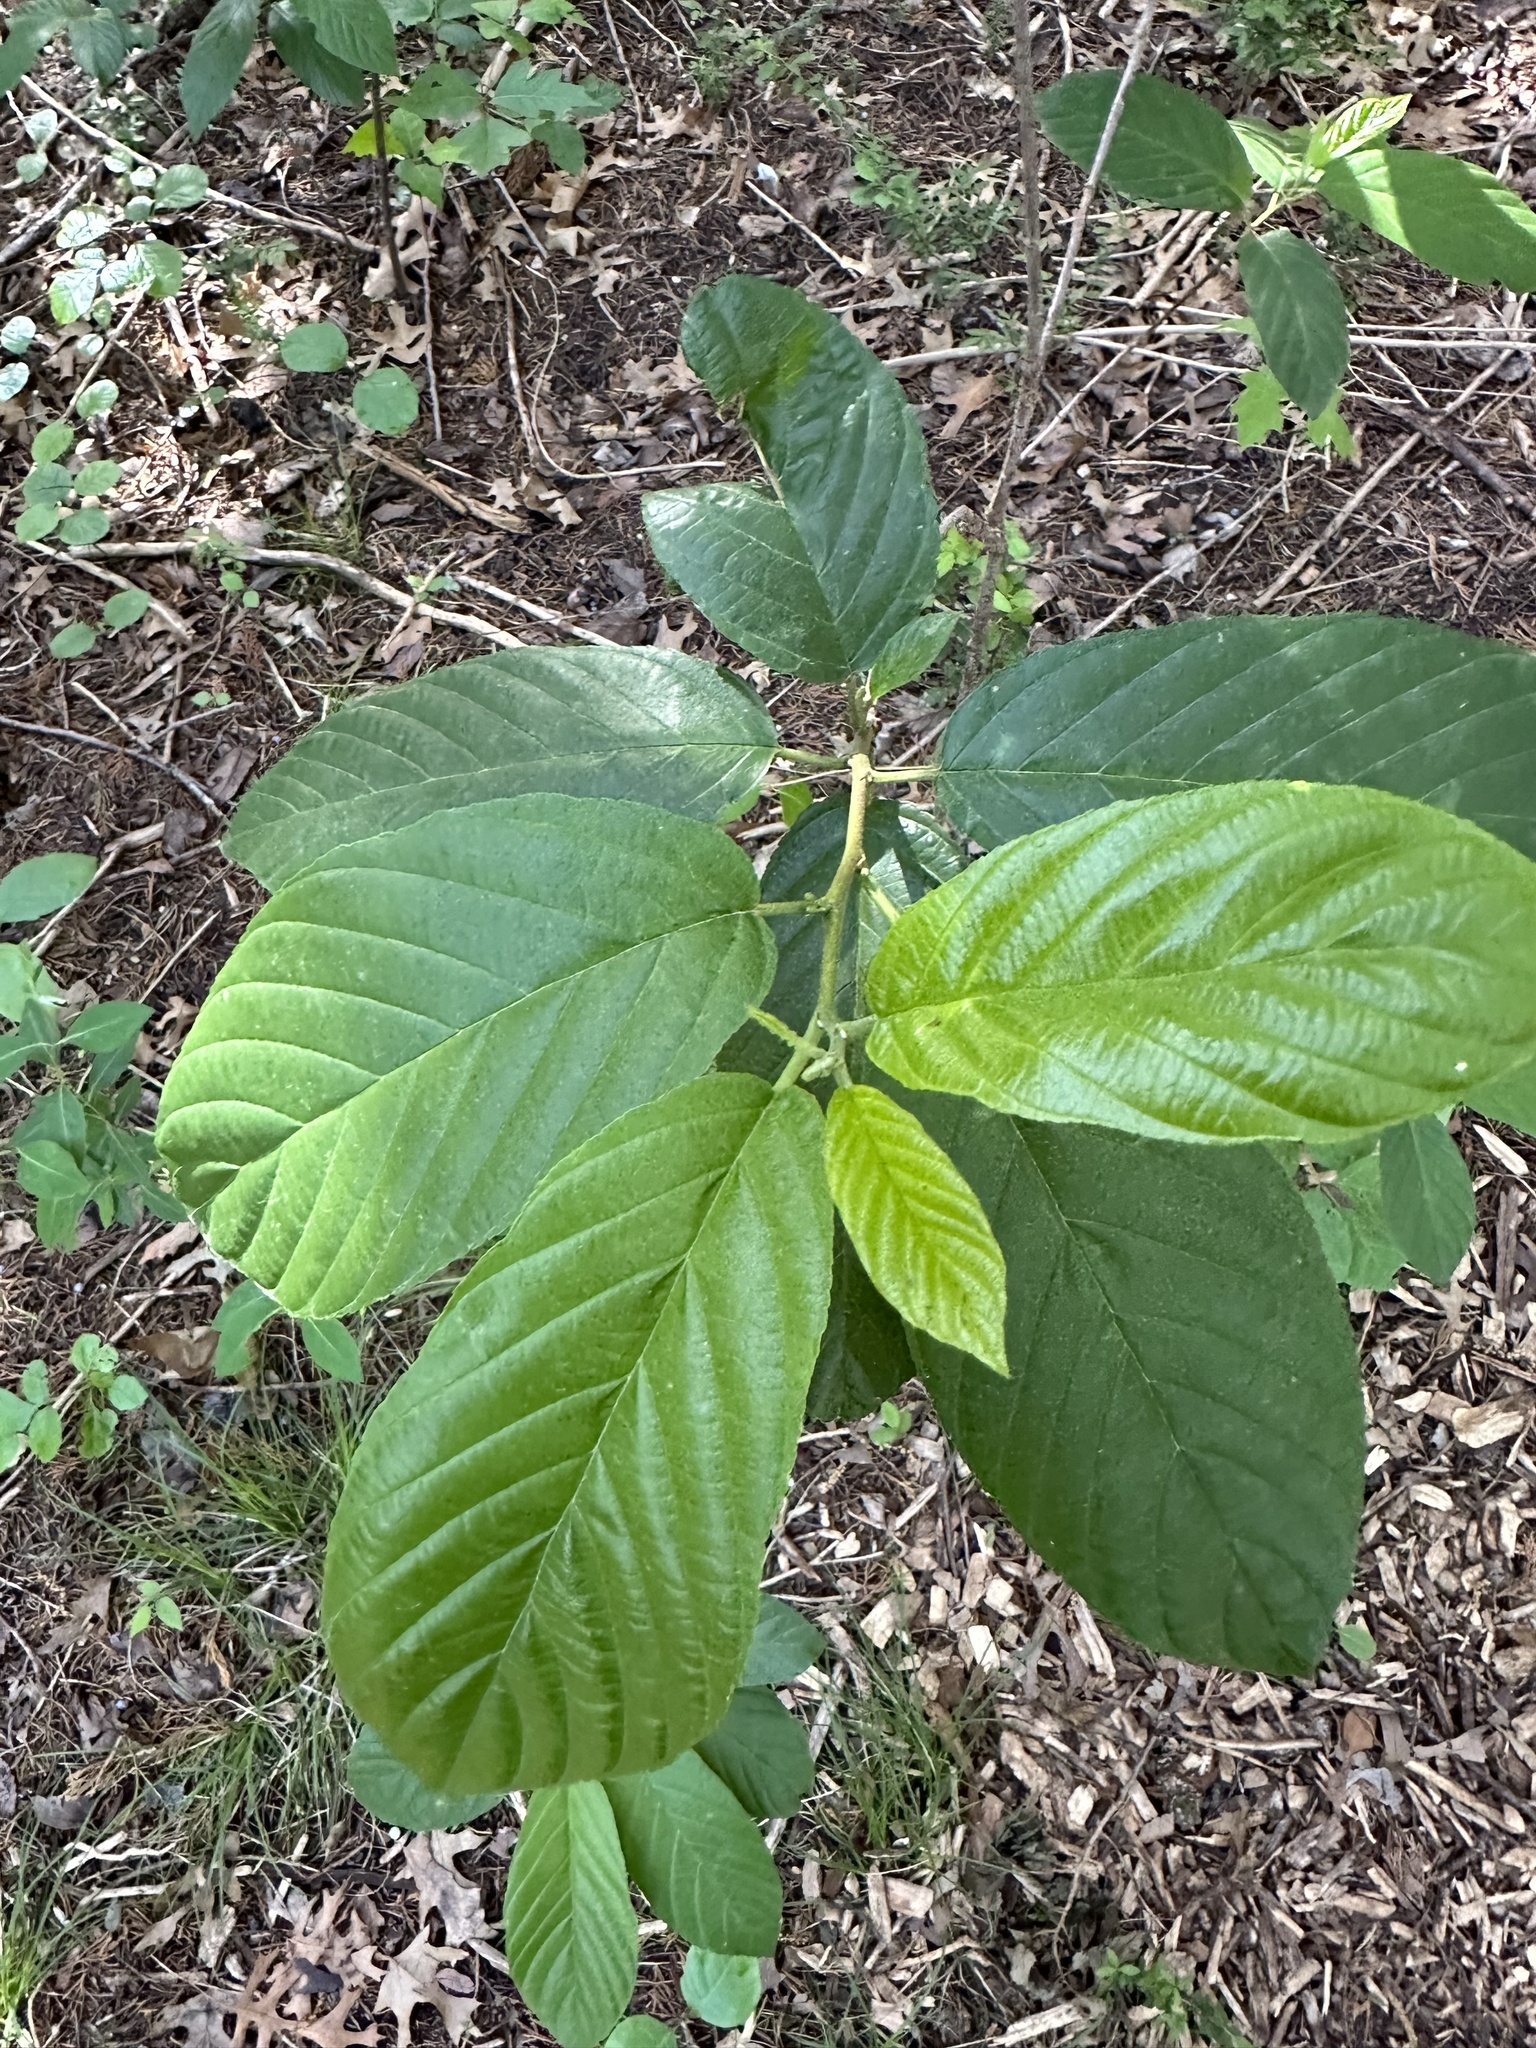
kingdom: Plantae
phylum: Tracheophyta
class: Magnoliopsida
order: Rosales
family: Rhamnaceae
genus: Frangula
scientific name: Frangula caroliniana
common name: Carolina buckthorn
